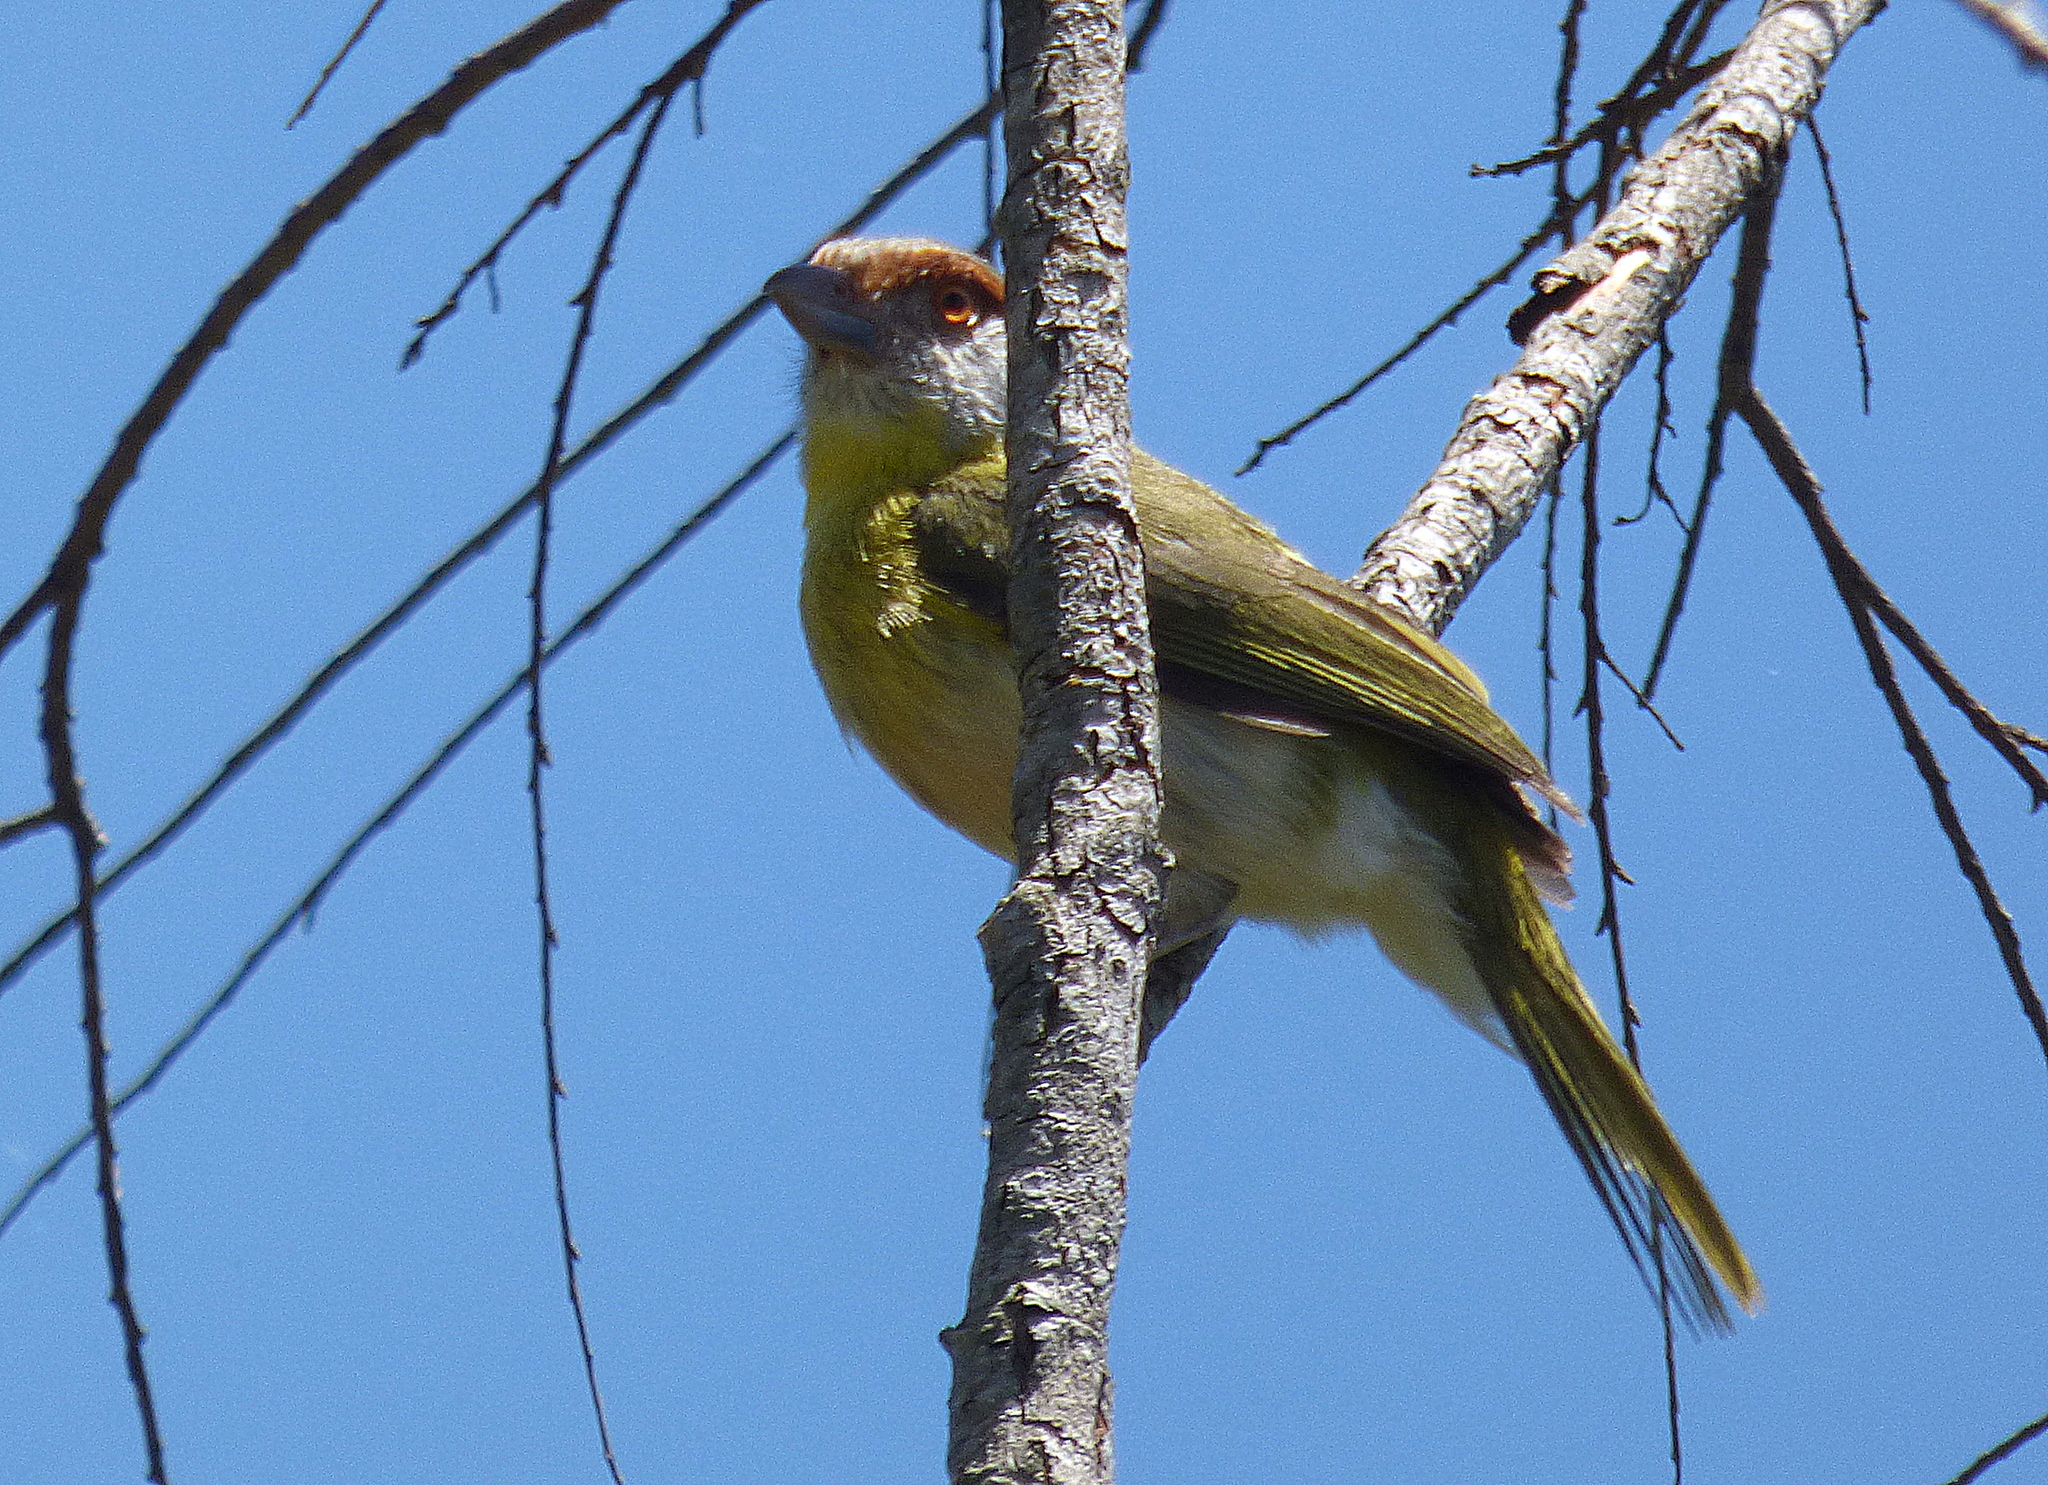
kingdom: Animalia
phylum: Chordata
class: Aves
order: Passeriformes
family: Vireonidae
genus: Cyclarhis
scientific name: Cyclarhis gujanensis
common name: Rufous-browed peppershrike
